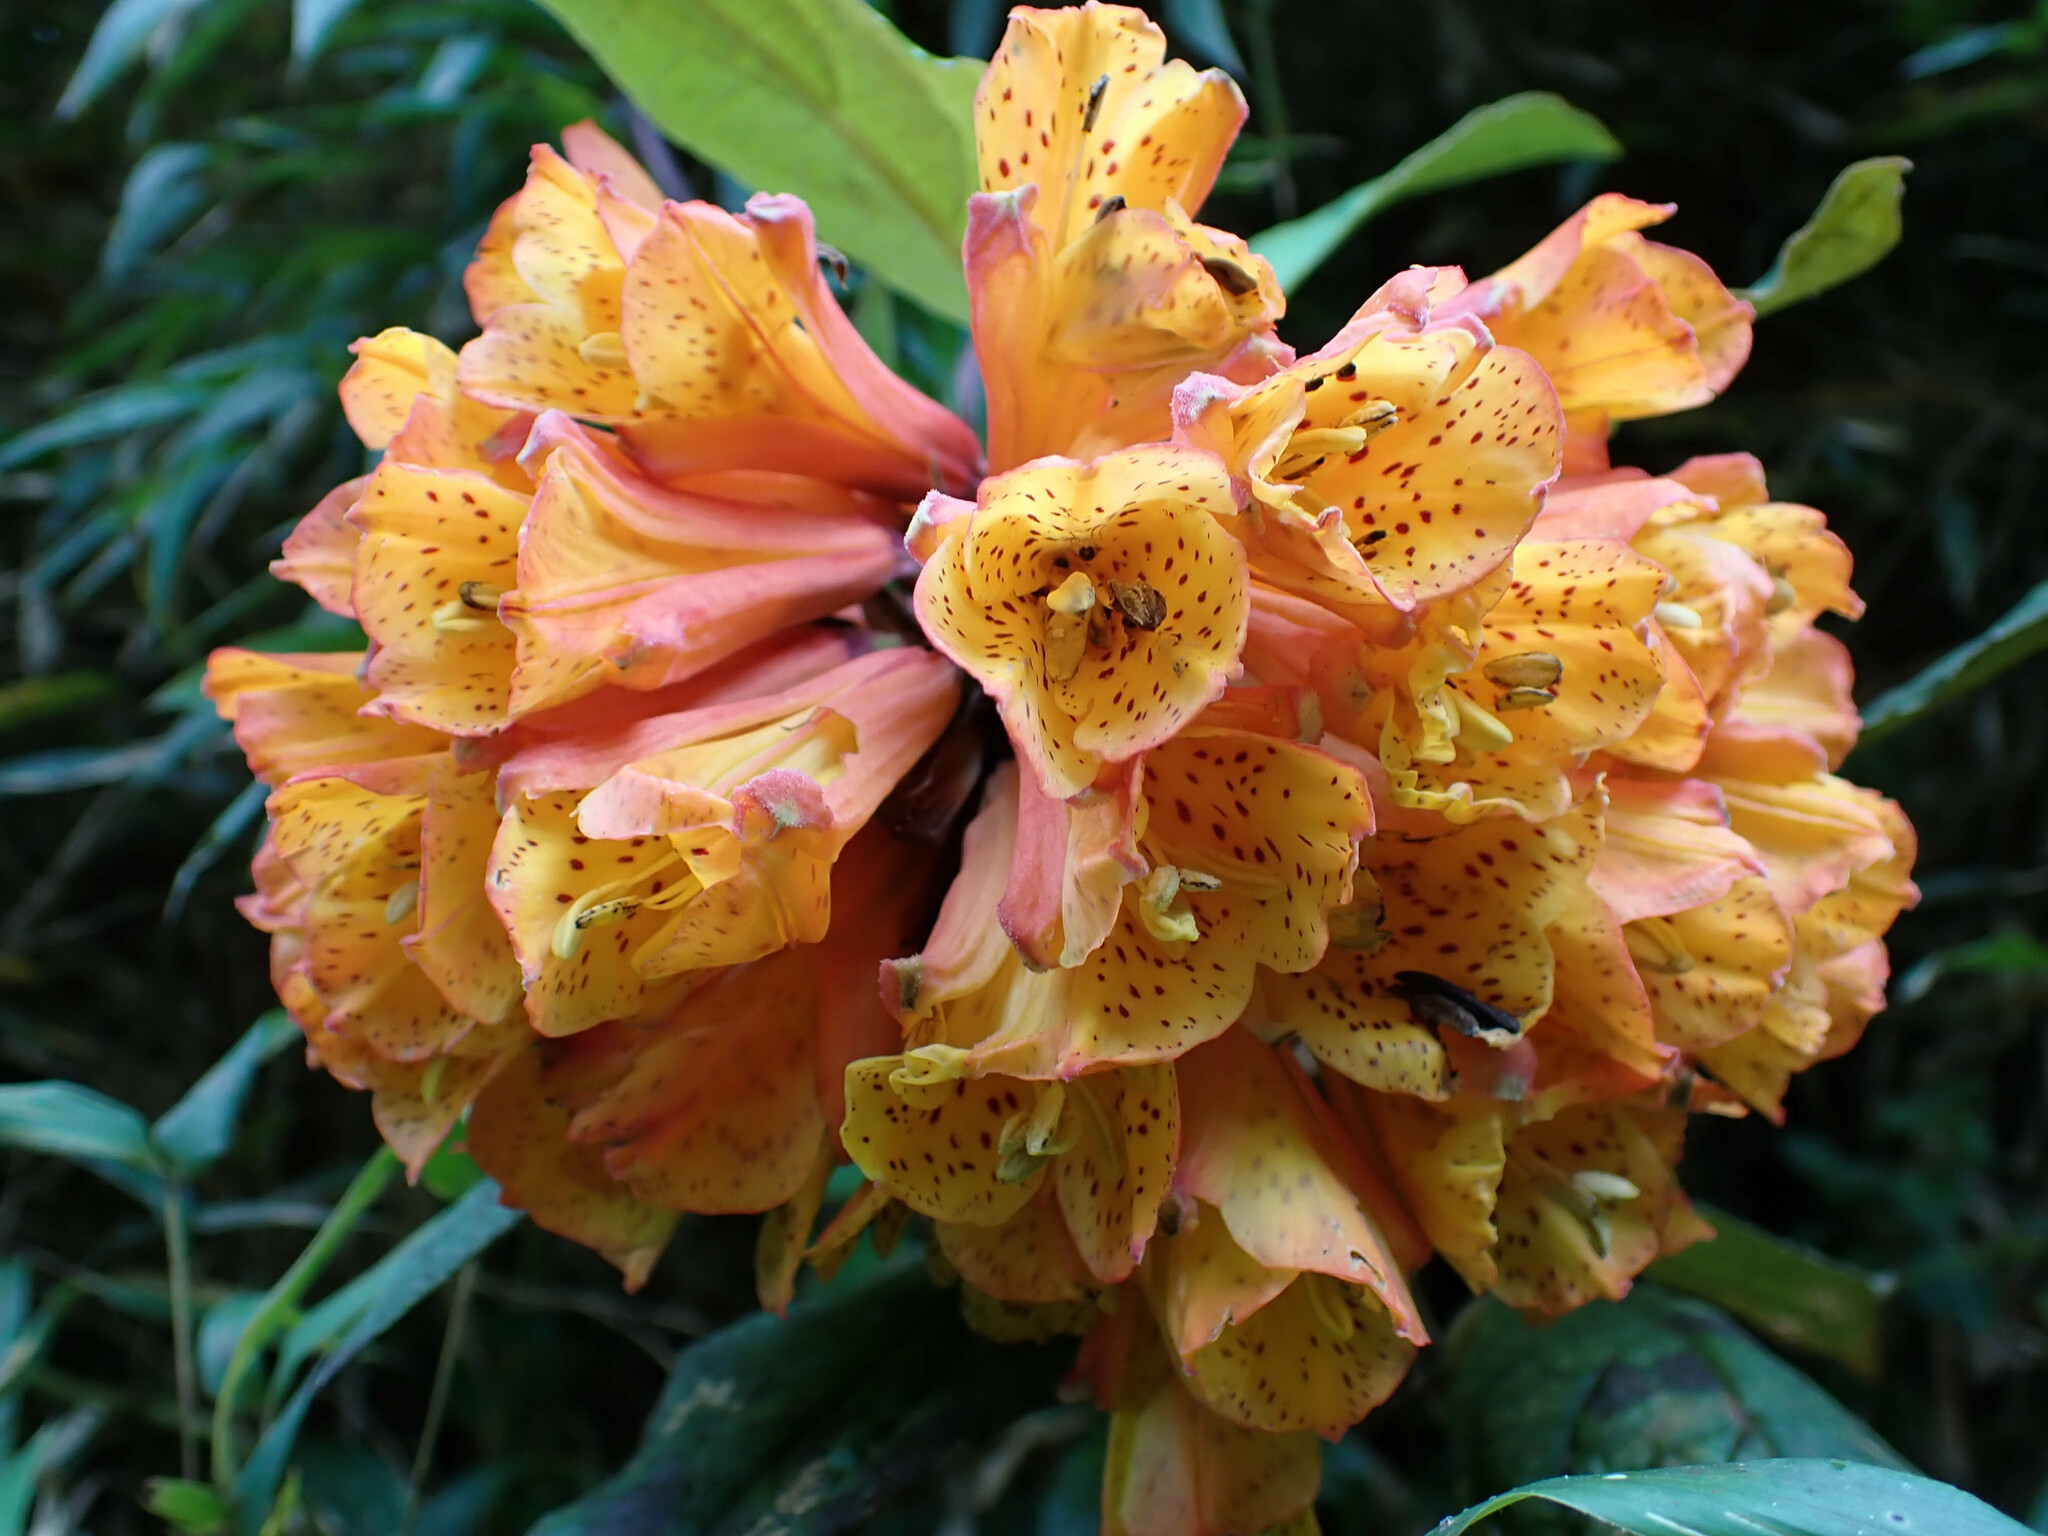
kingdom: Plantae
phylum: Tracheophyta
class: Liliopsida
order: Liliales
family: Alstroemeriaceae
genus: Bomarea
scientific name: Bomarea multiflora
